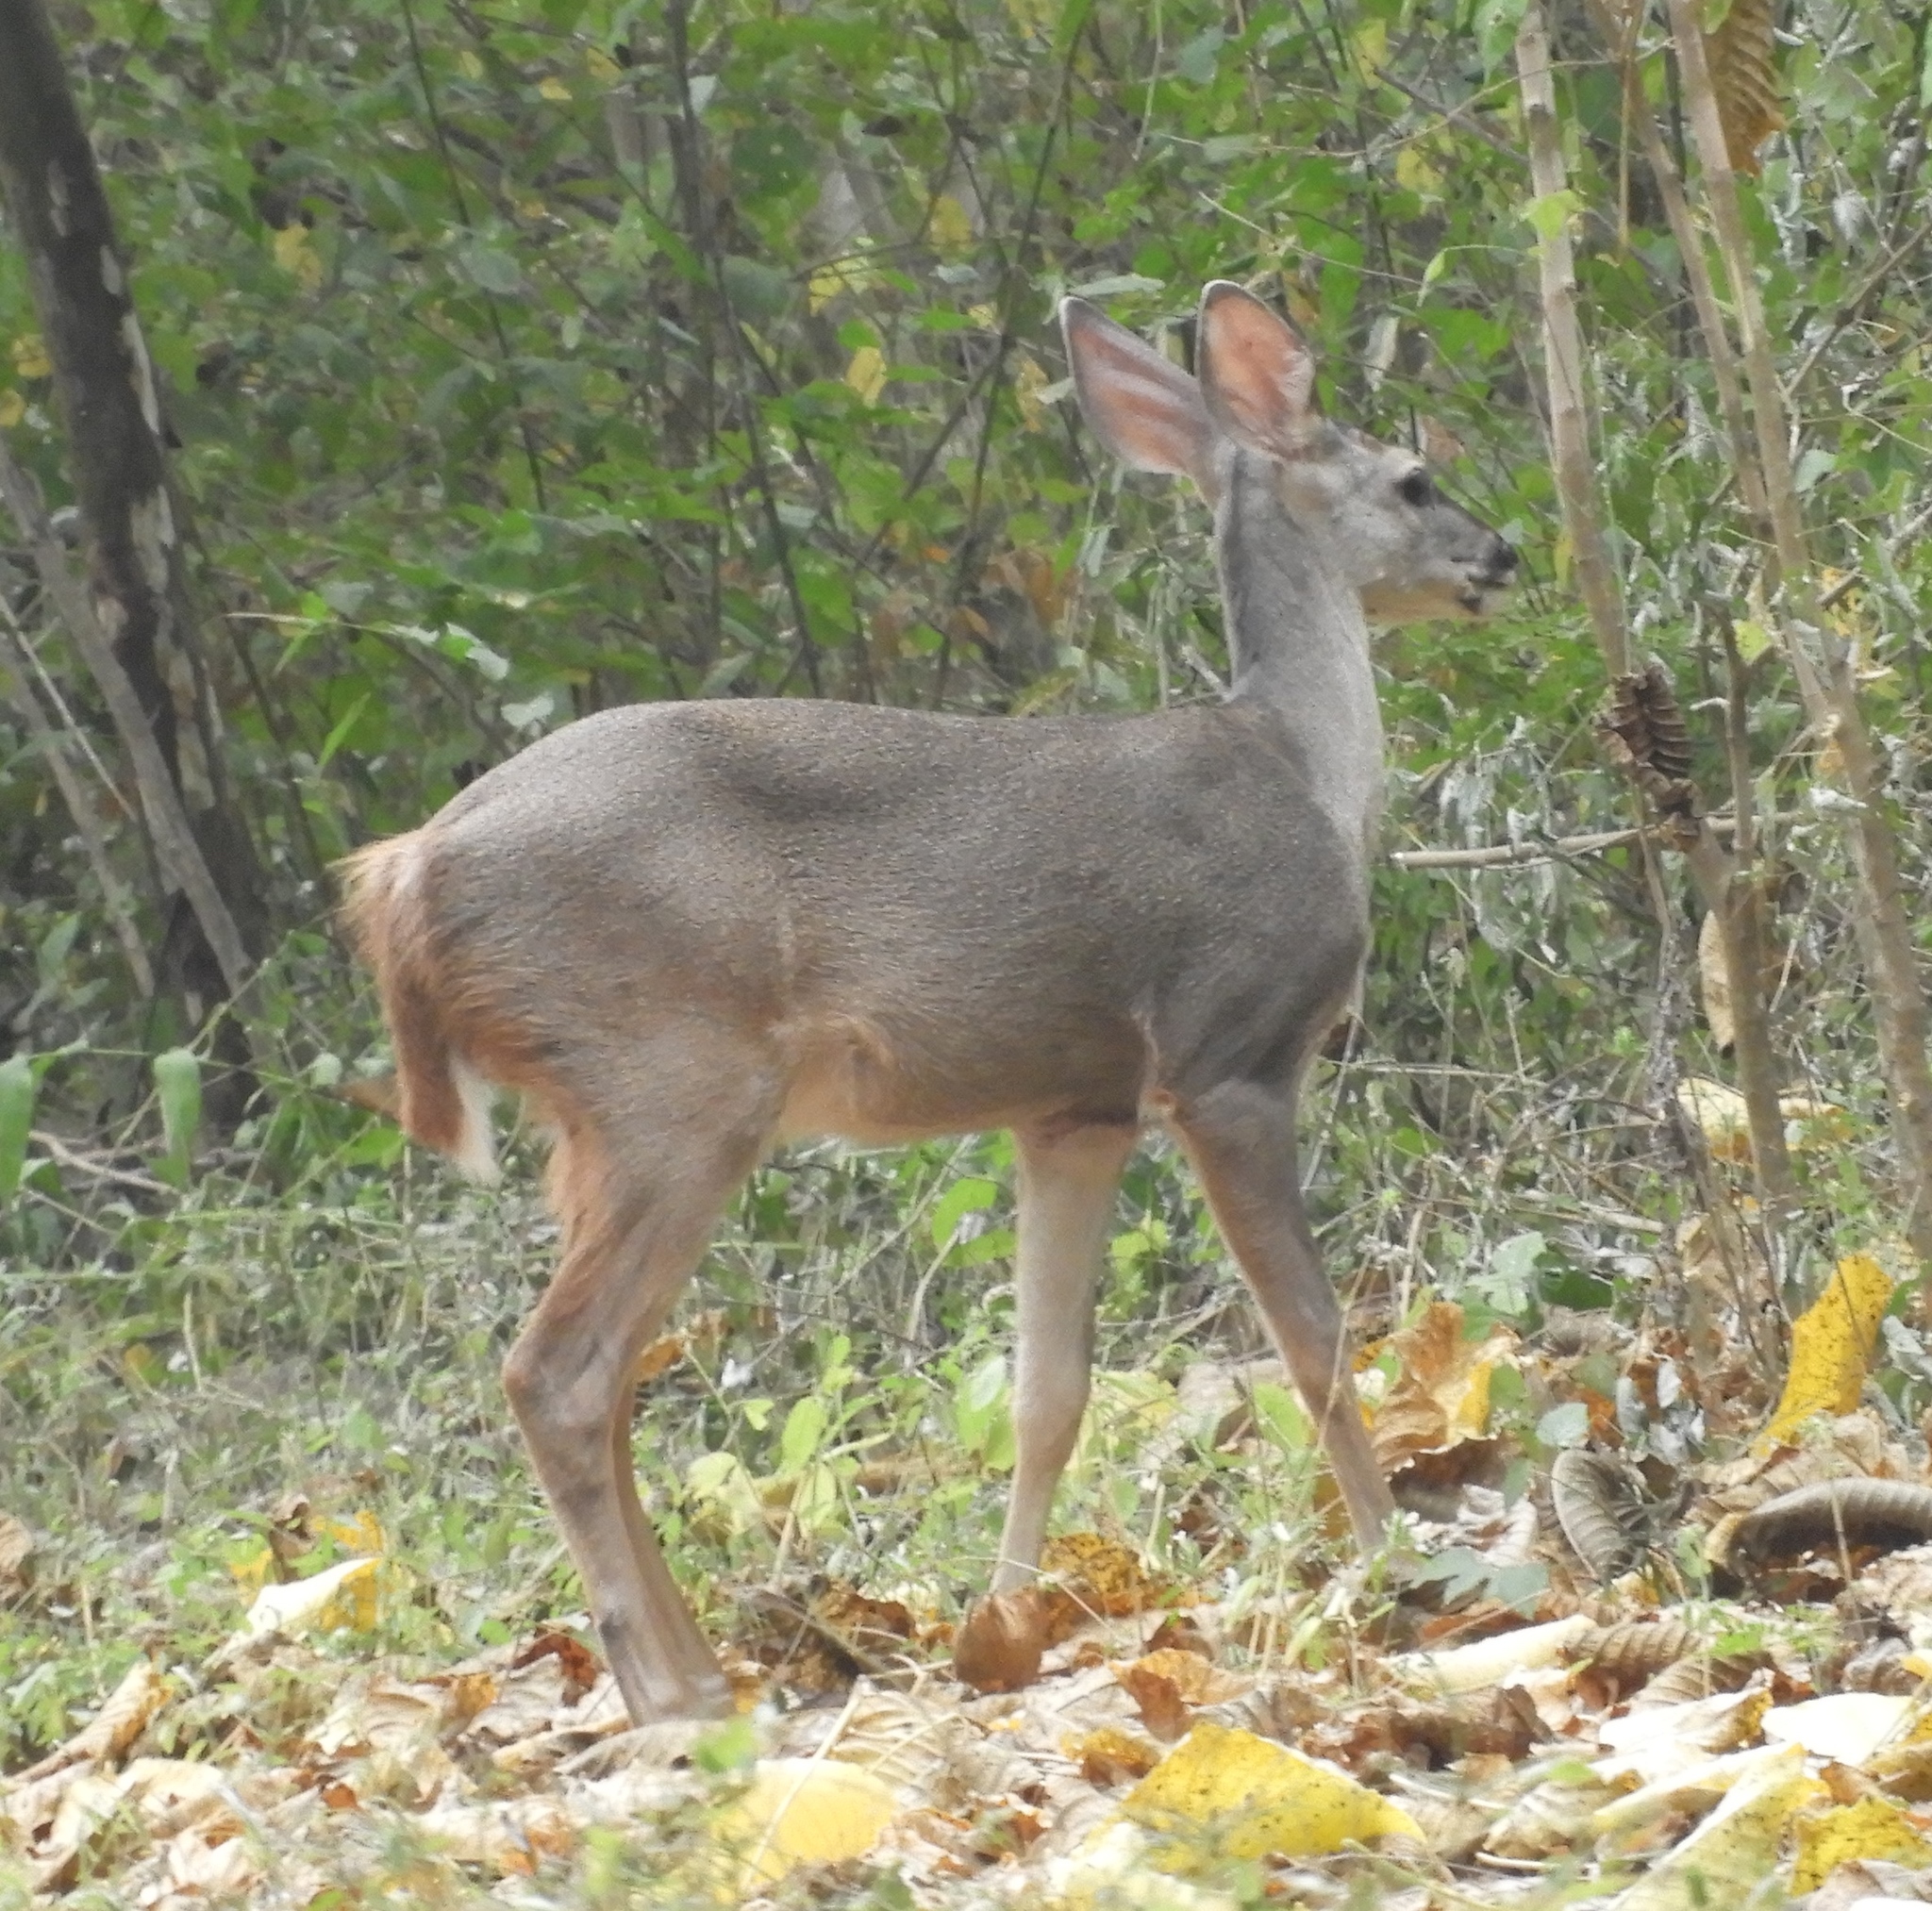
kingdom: Animalia
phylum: Chordata
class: Mammalia
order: Artiodactyla
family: Cervidae
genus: Odocoileus
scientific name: Odocoileus virginianus
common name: White-tailed deer
